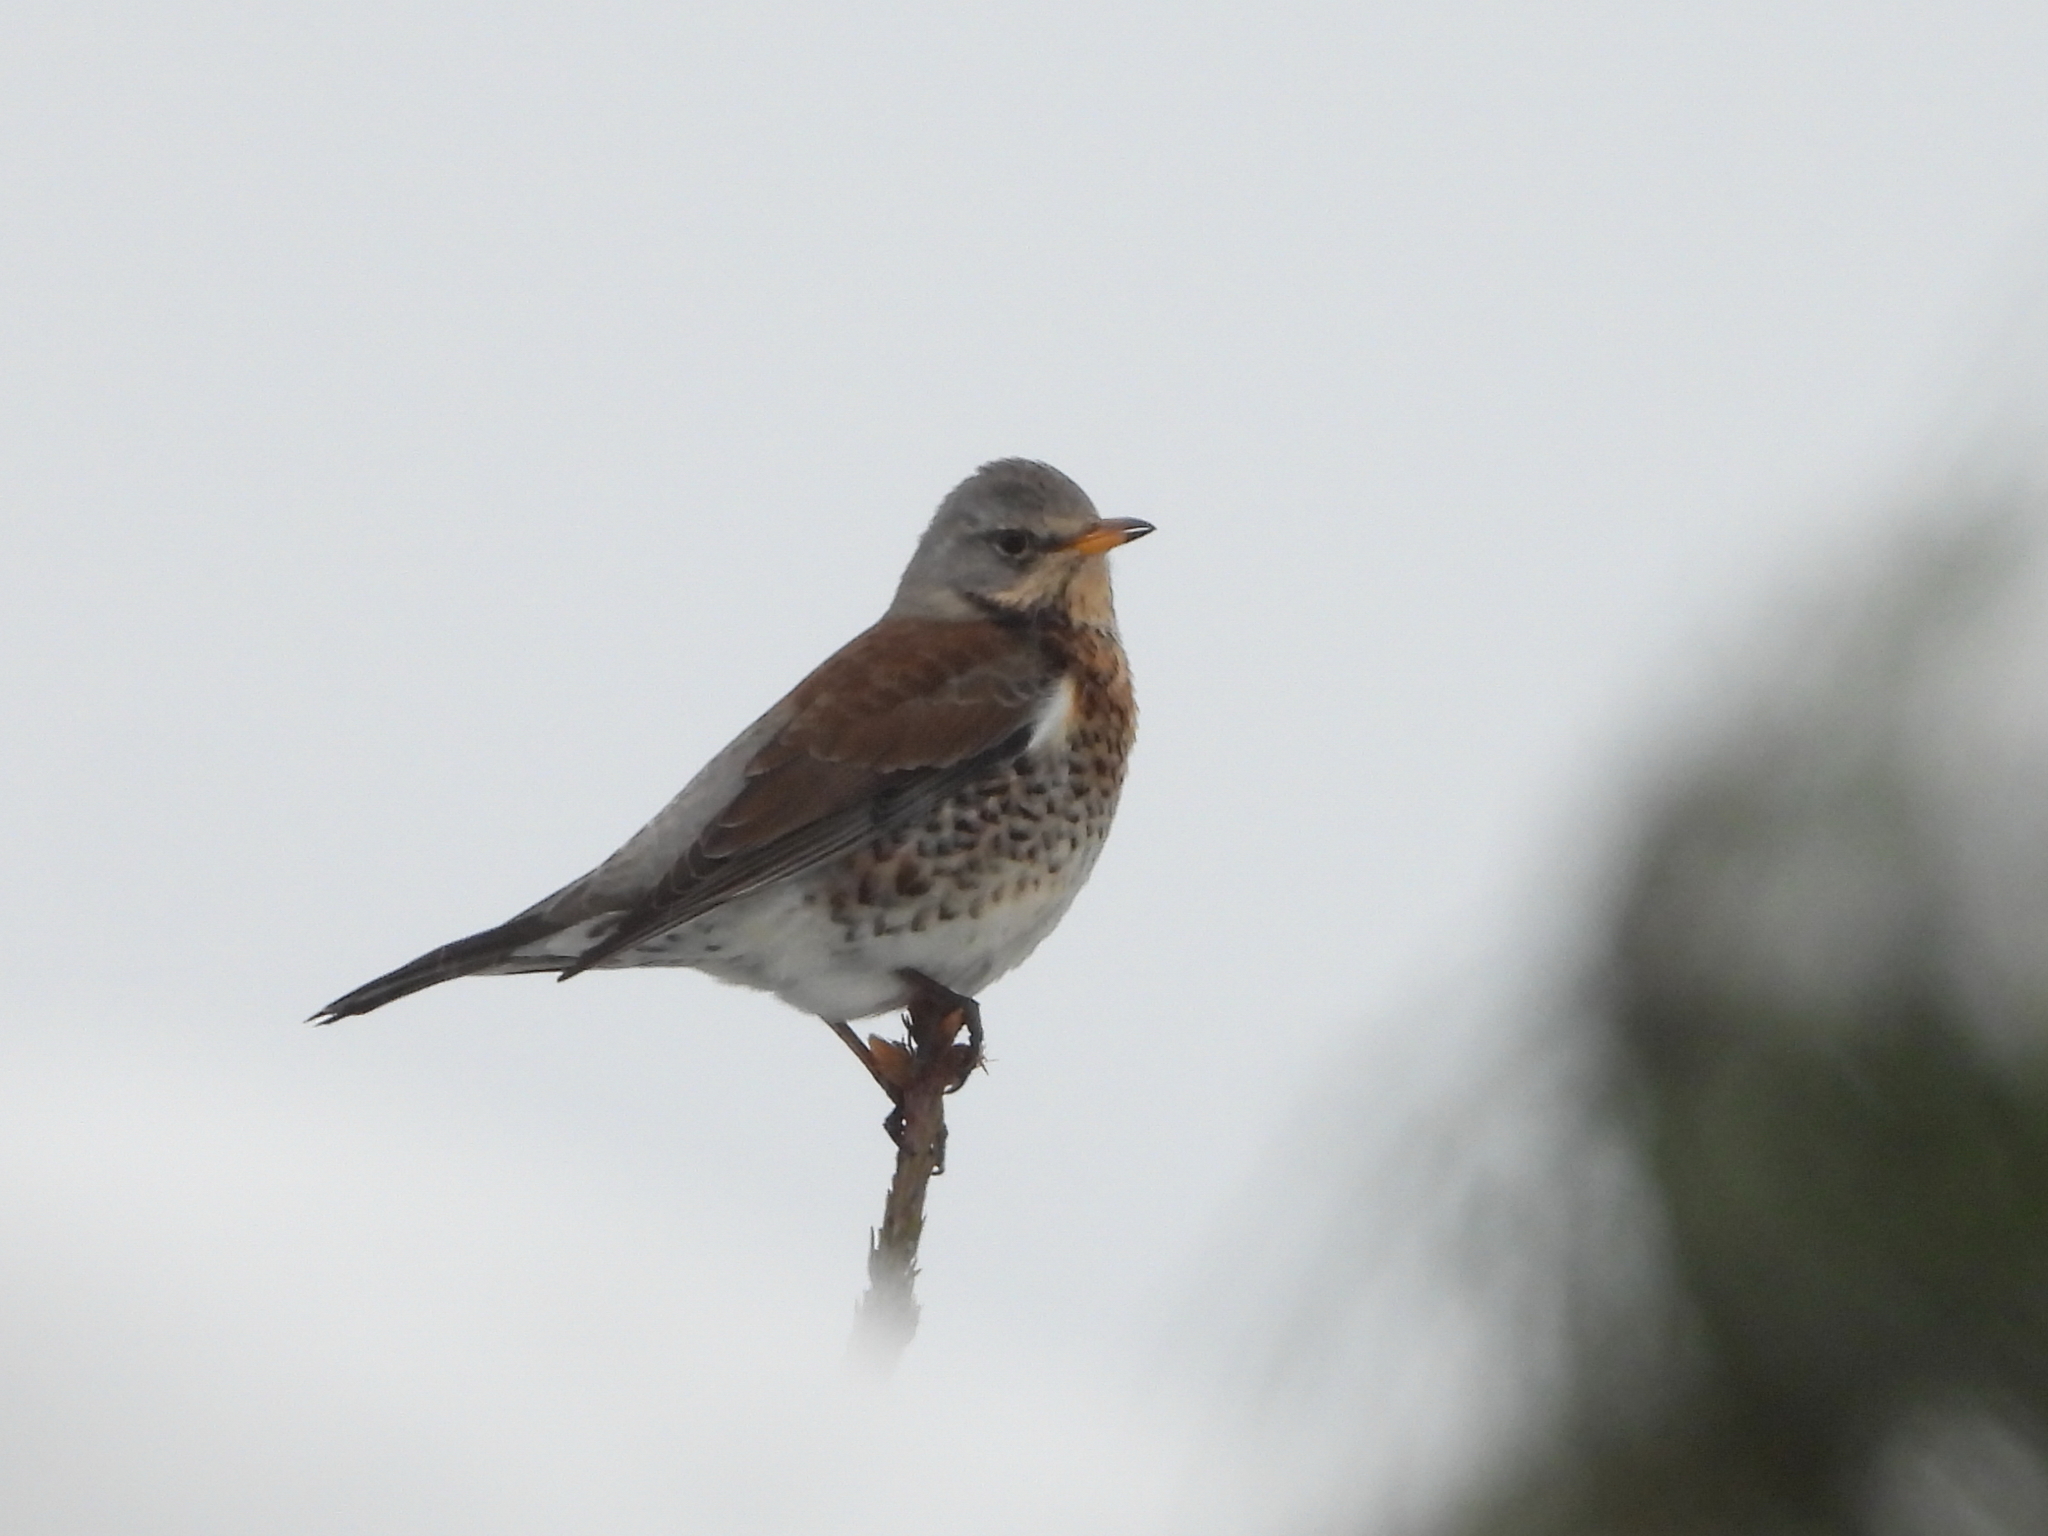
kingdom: Animalia
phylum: Chordata
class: Aves
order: Passeriformes
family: Turdidae
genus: Turdus
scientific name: Turdus pilaris
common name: Fieldfare
